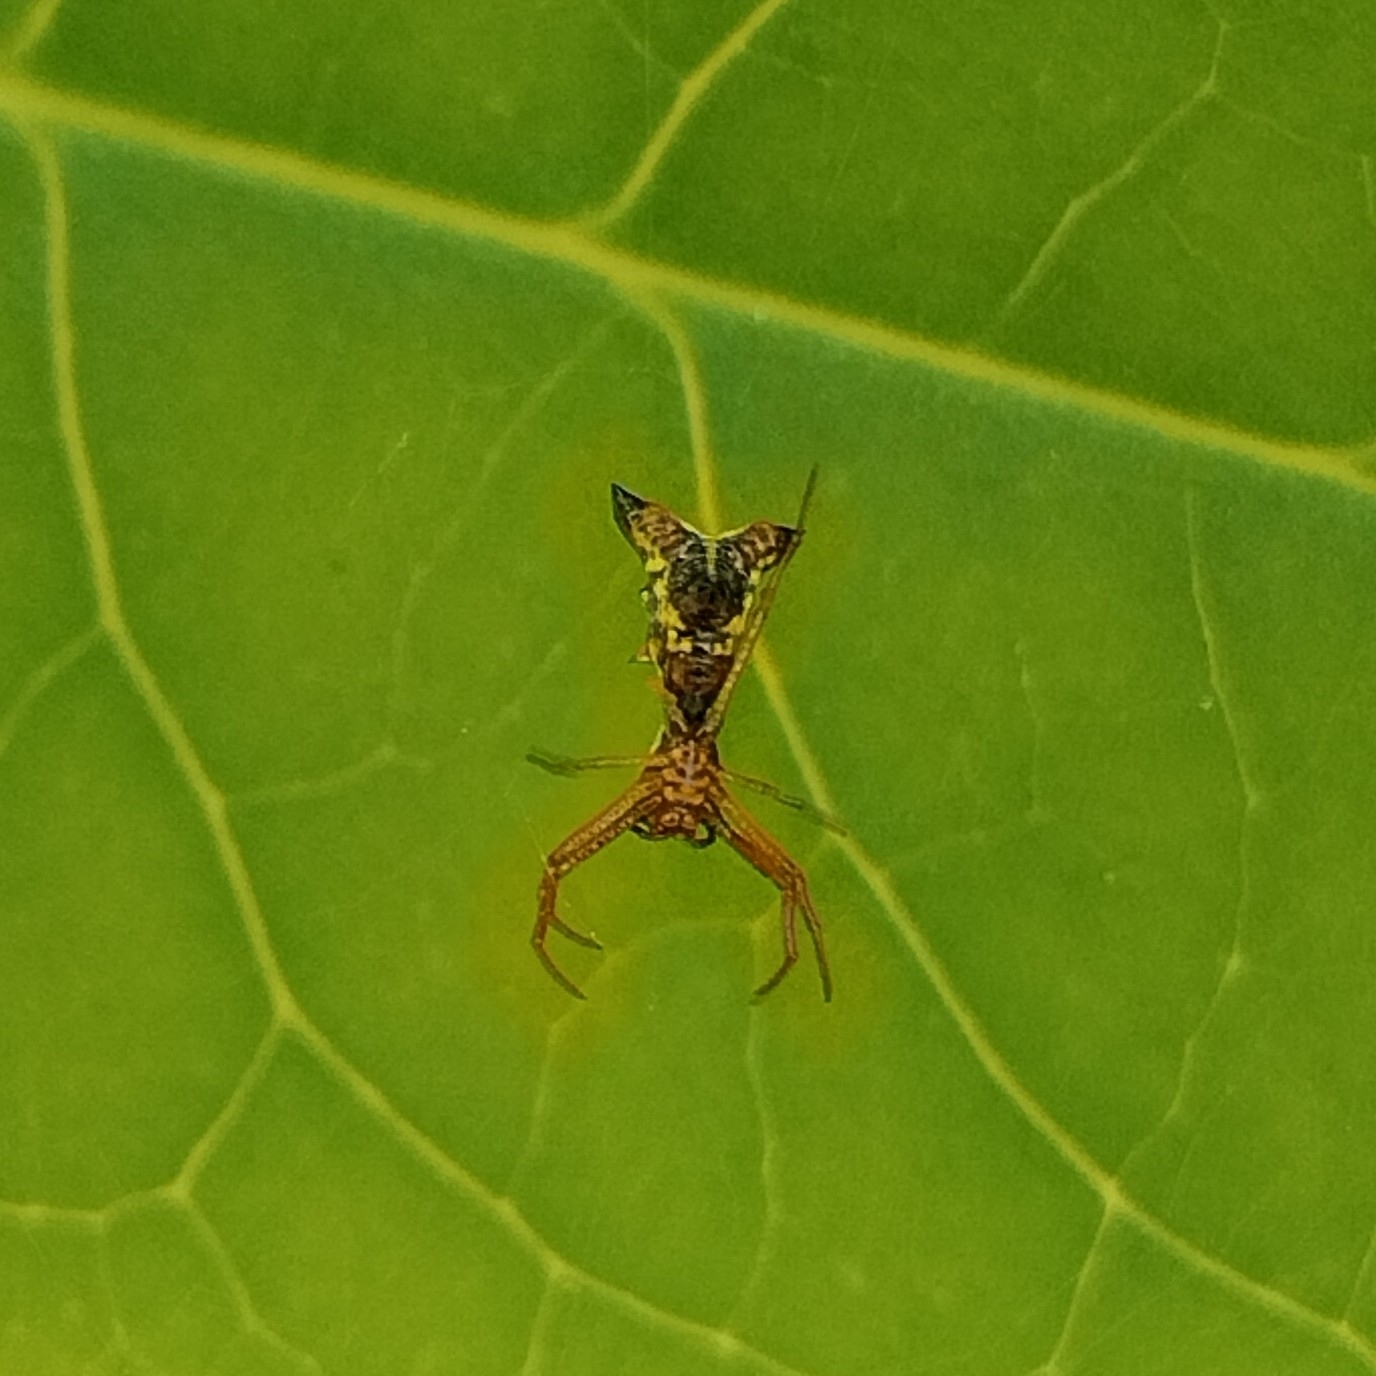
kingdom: Animalia
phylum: Arthropoda
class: Arachnida
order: Araneae
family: Araneidae
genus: Micrathena
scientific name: Micrathena sagittata
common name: Orb weavers
